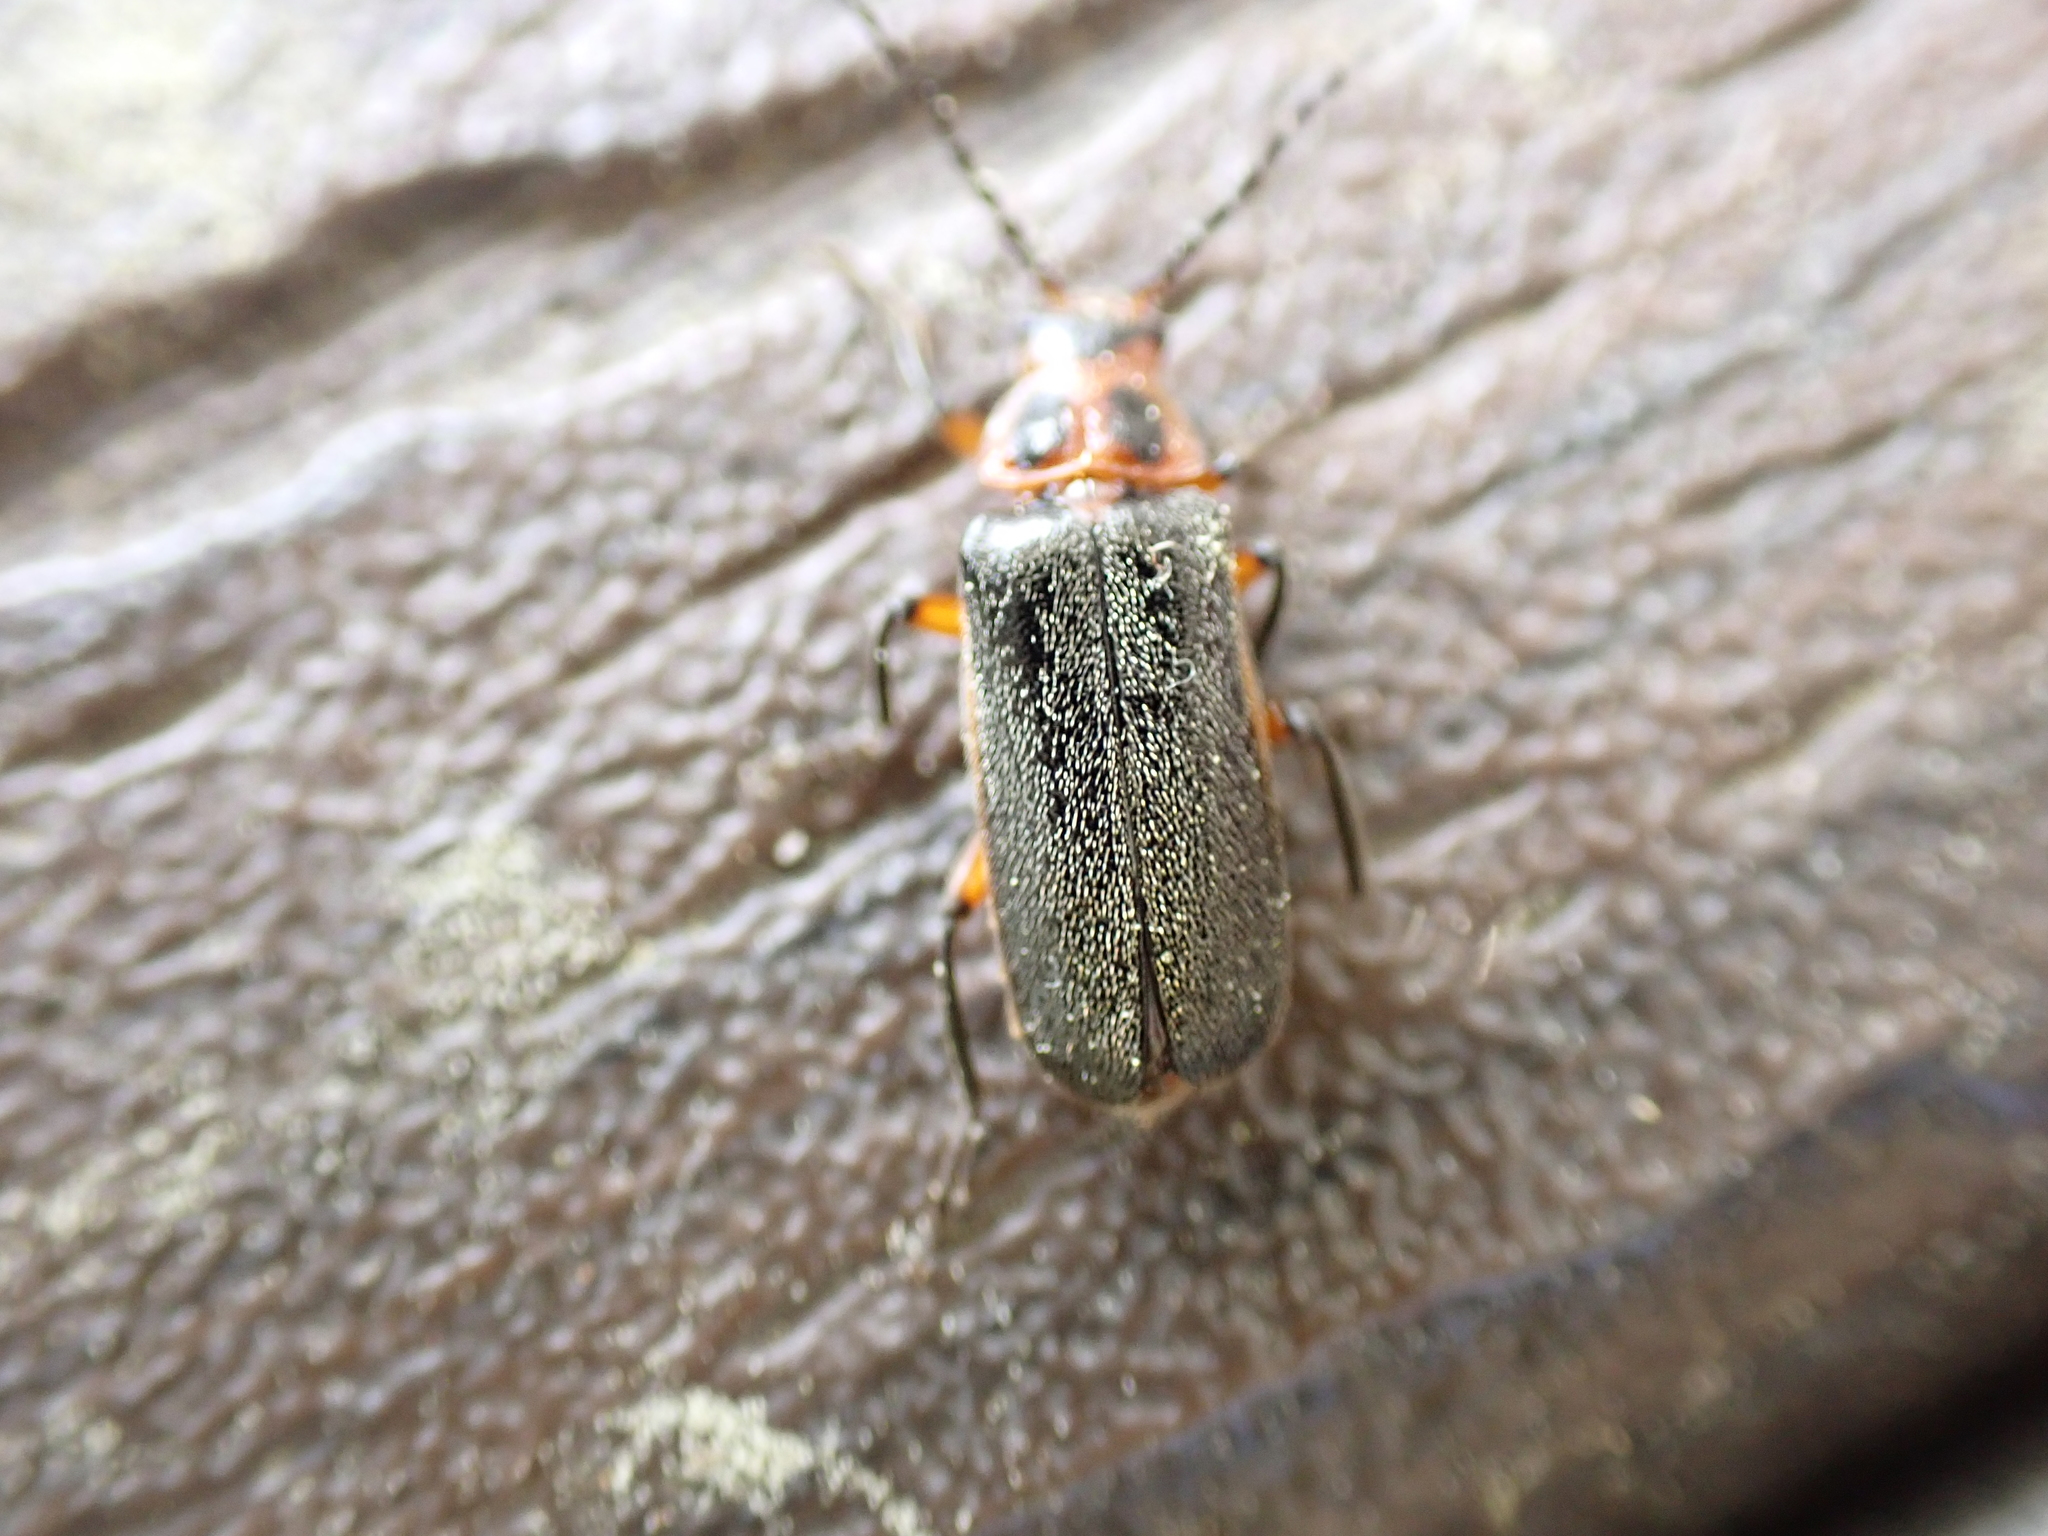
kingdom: Animalia
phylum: Arthropoda
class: Insecta
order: Coleoptera
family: Cantharidae
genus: Atalantycha
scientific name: Atalantycha bilineata
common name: Two-lined leatherwing
